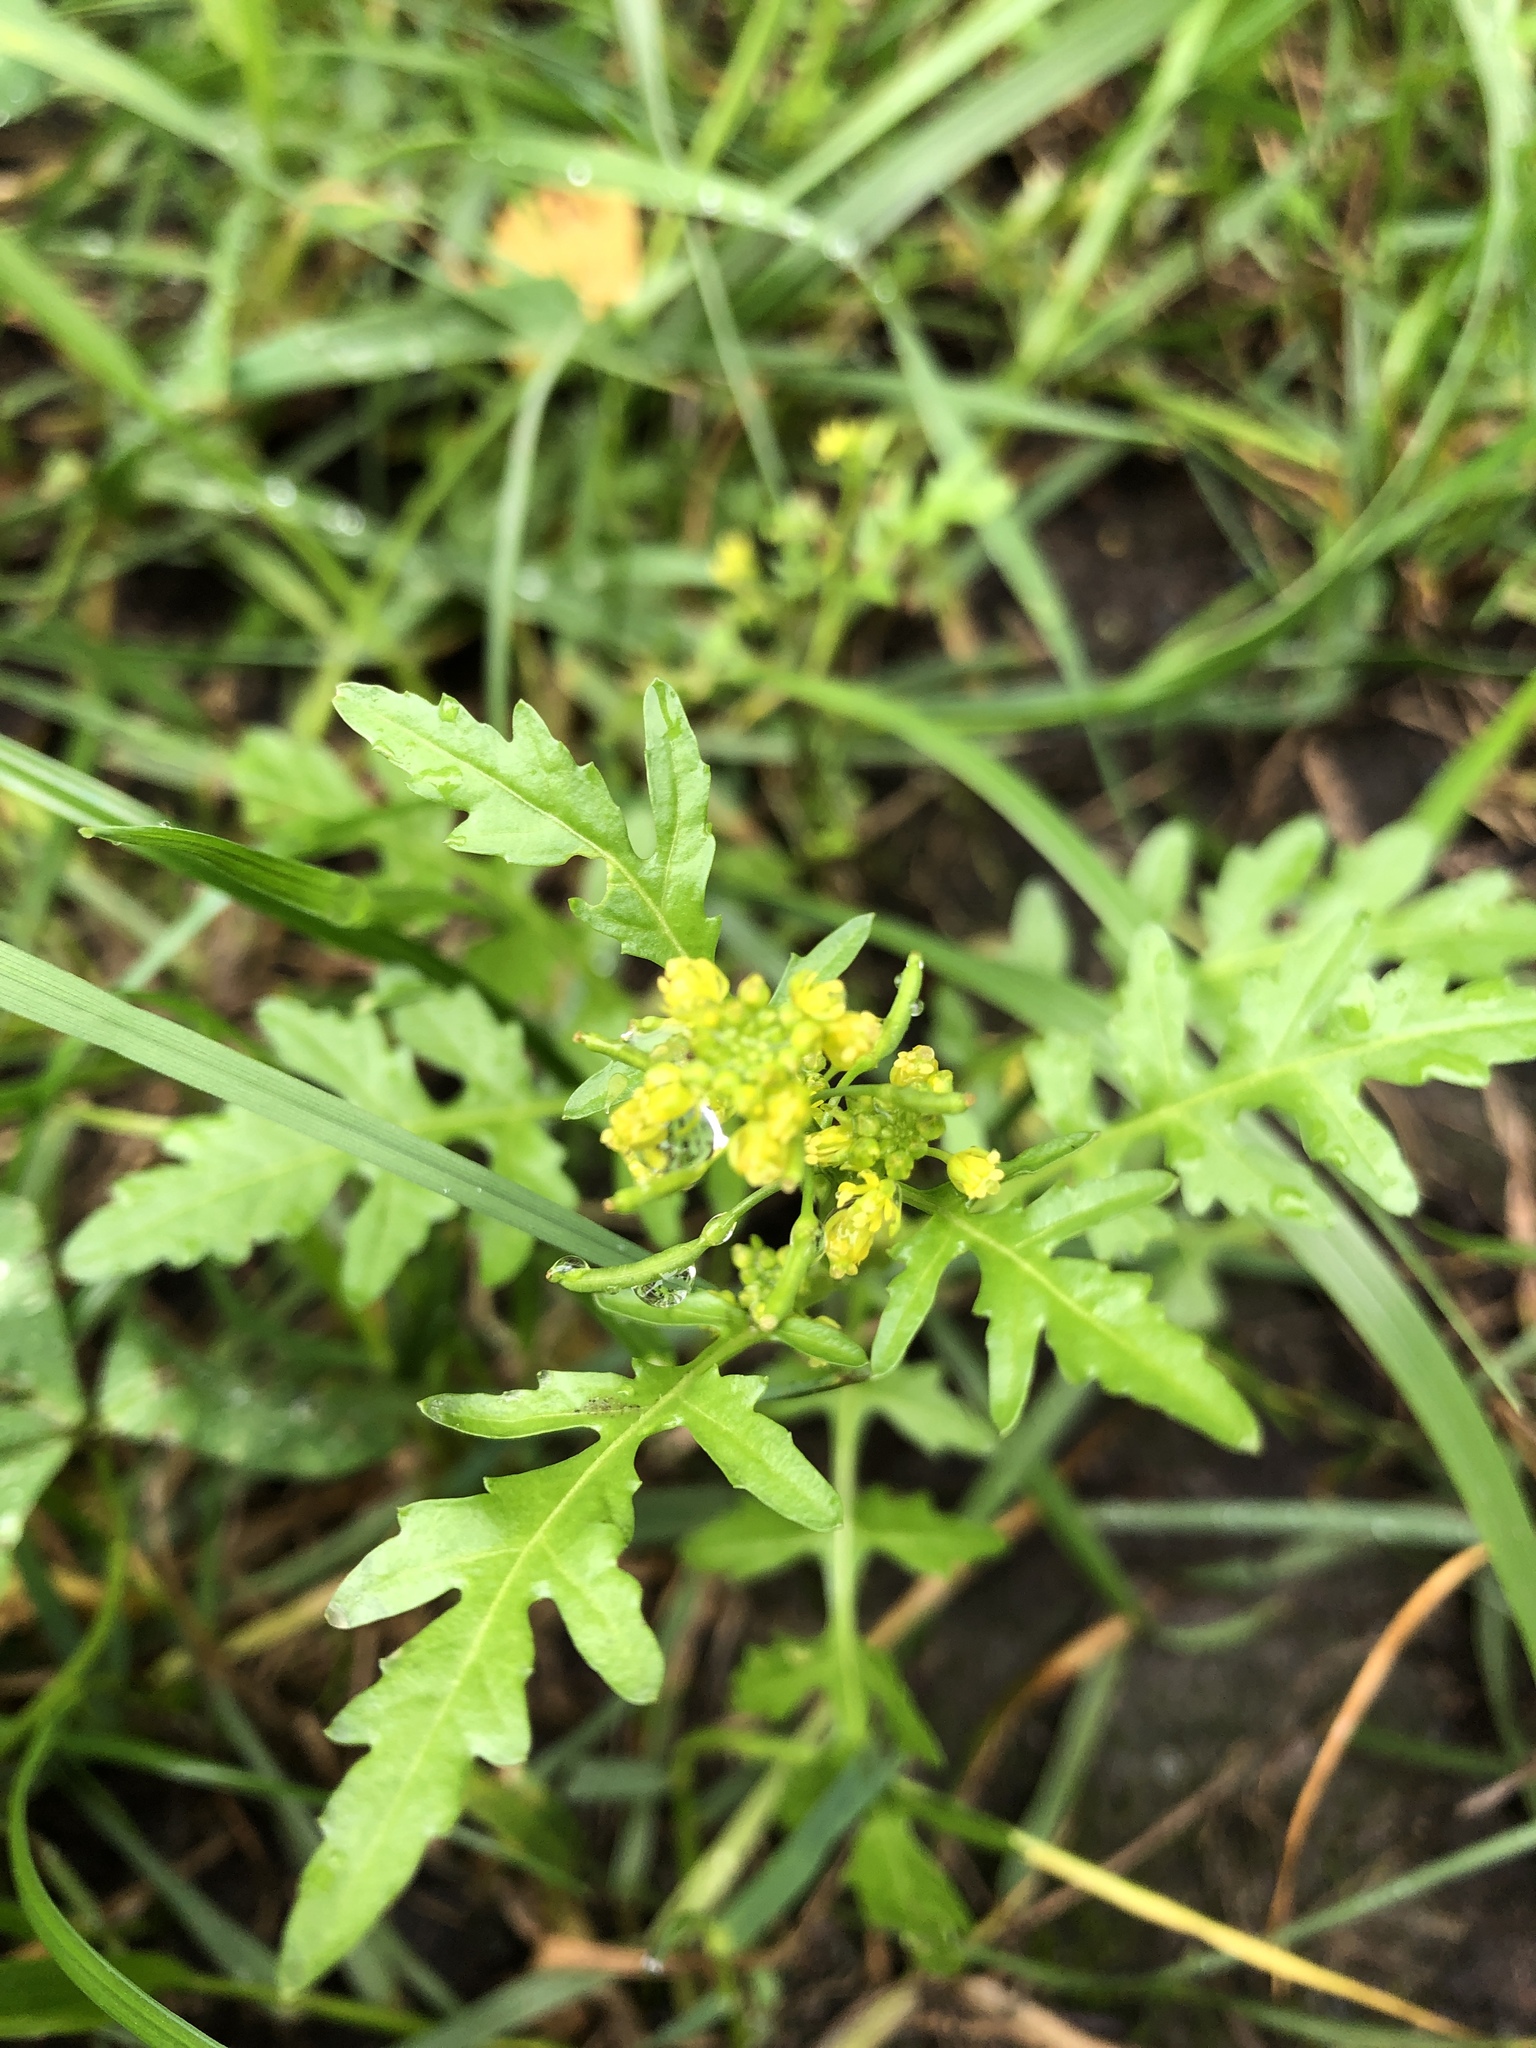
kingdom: Plantae
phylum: Tracheophyta
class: Magnoliopsida
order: Brassicales
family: Brassicaceae
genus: Rorippa
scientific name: Rorippa palustris
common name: Marsh yellow-cress
